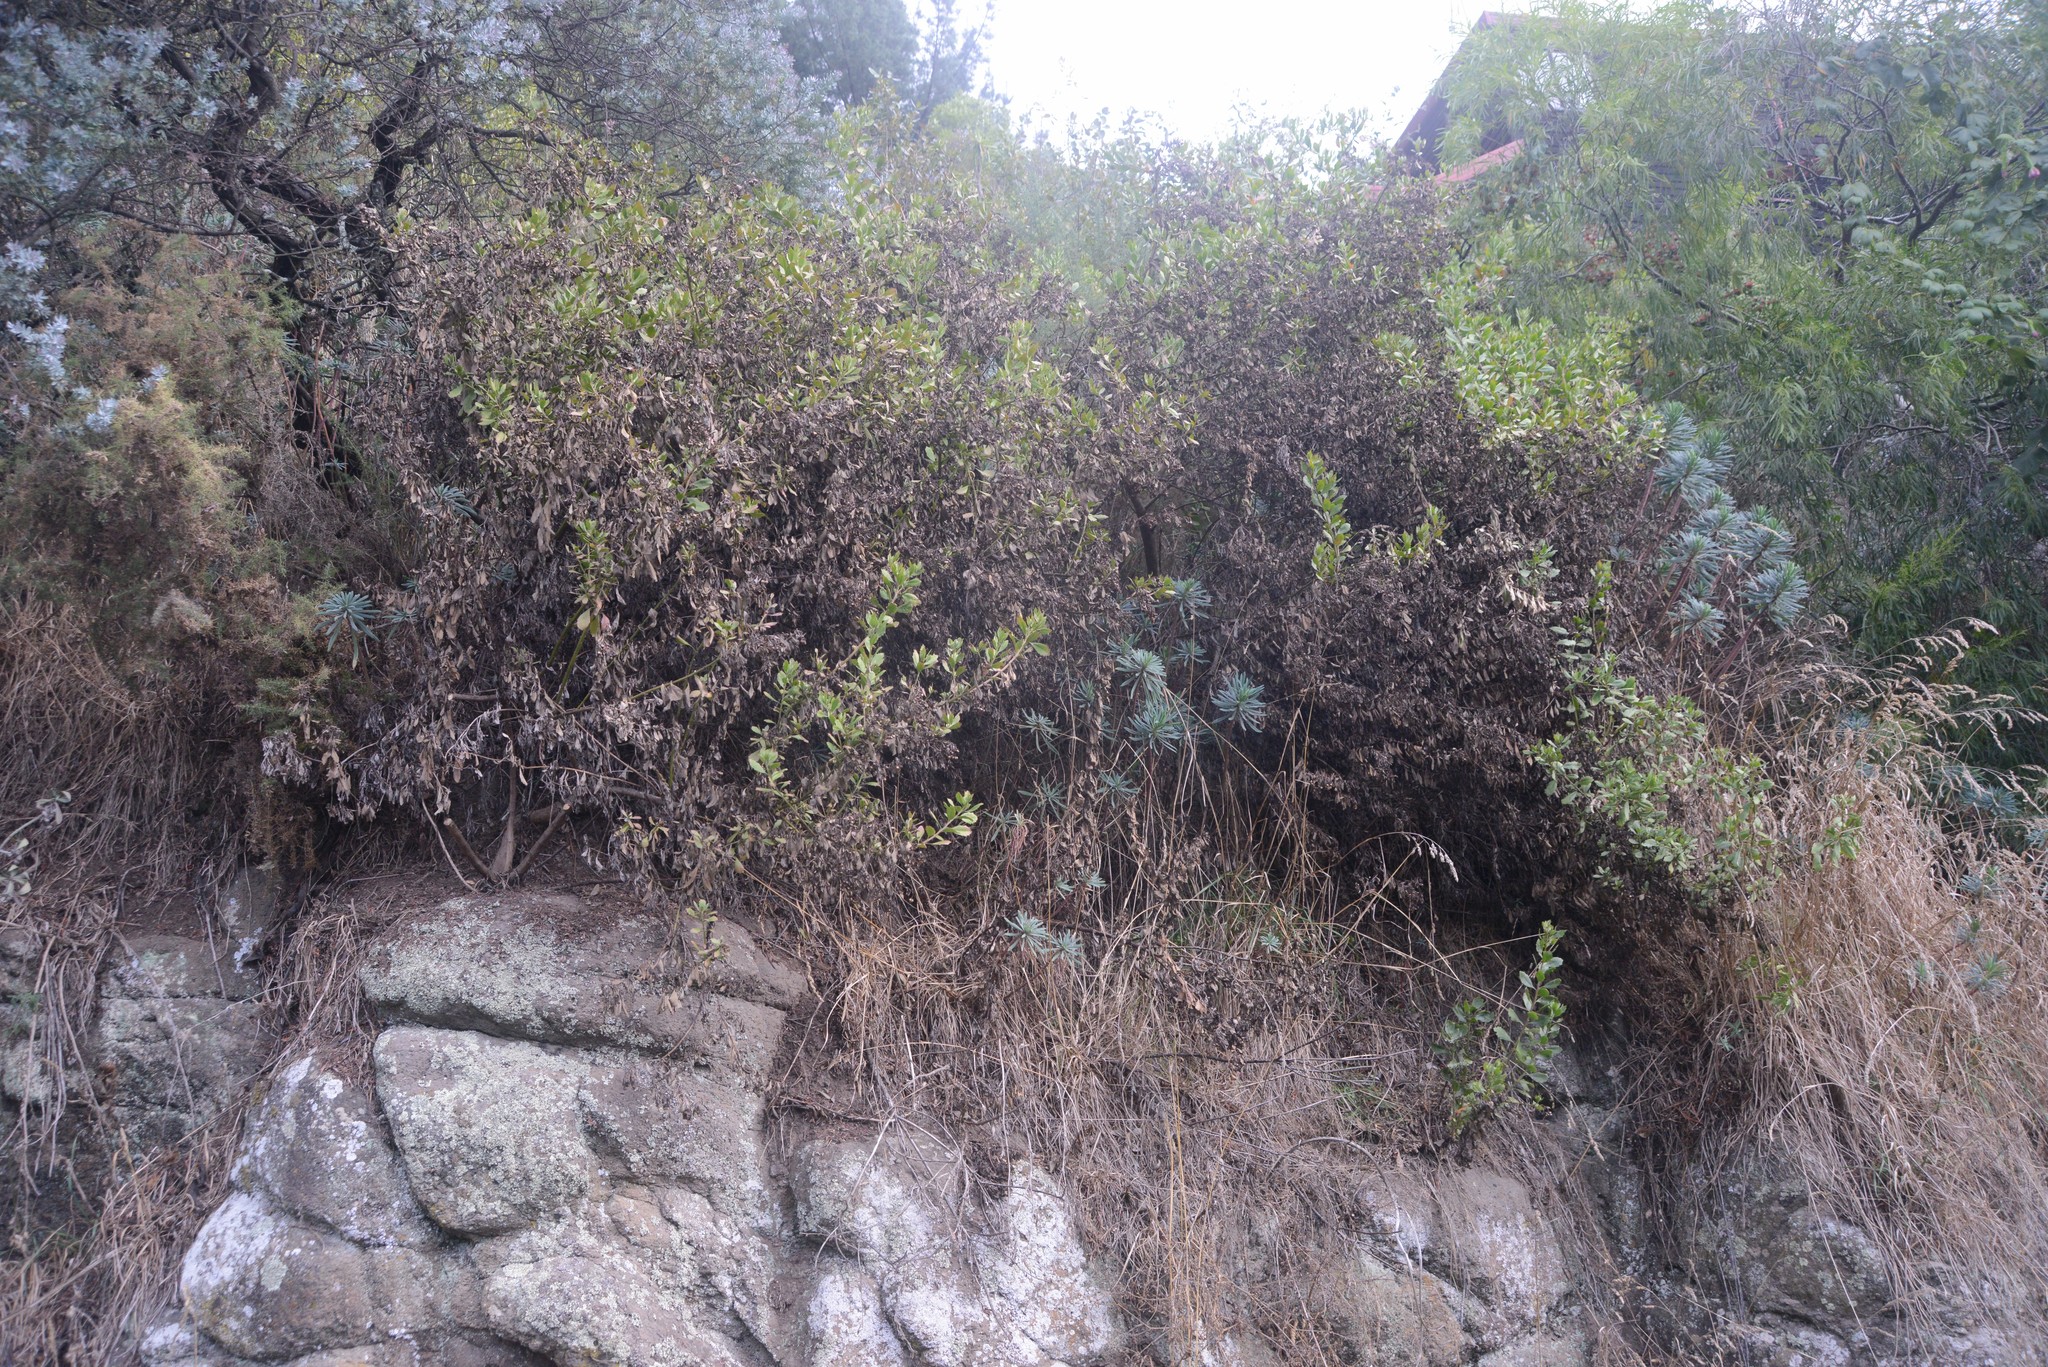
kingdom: Plantae
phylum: Tracheophyta
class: Magnoliopsida
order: Asterales
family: Asteraceae
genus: Osteospermum
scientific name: Osteospermum moniliferum
